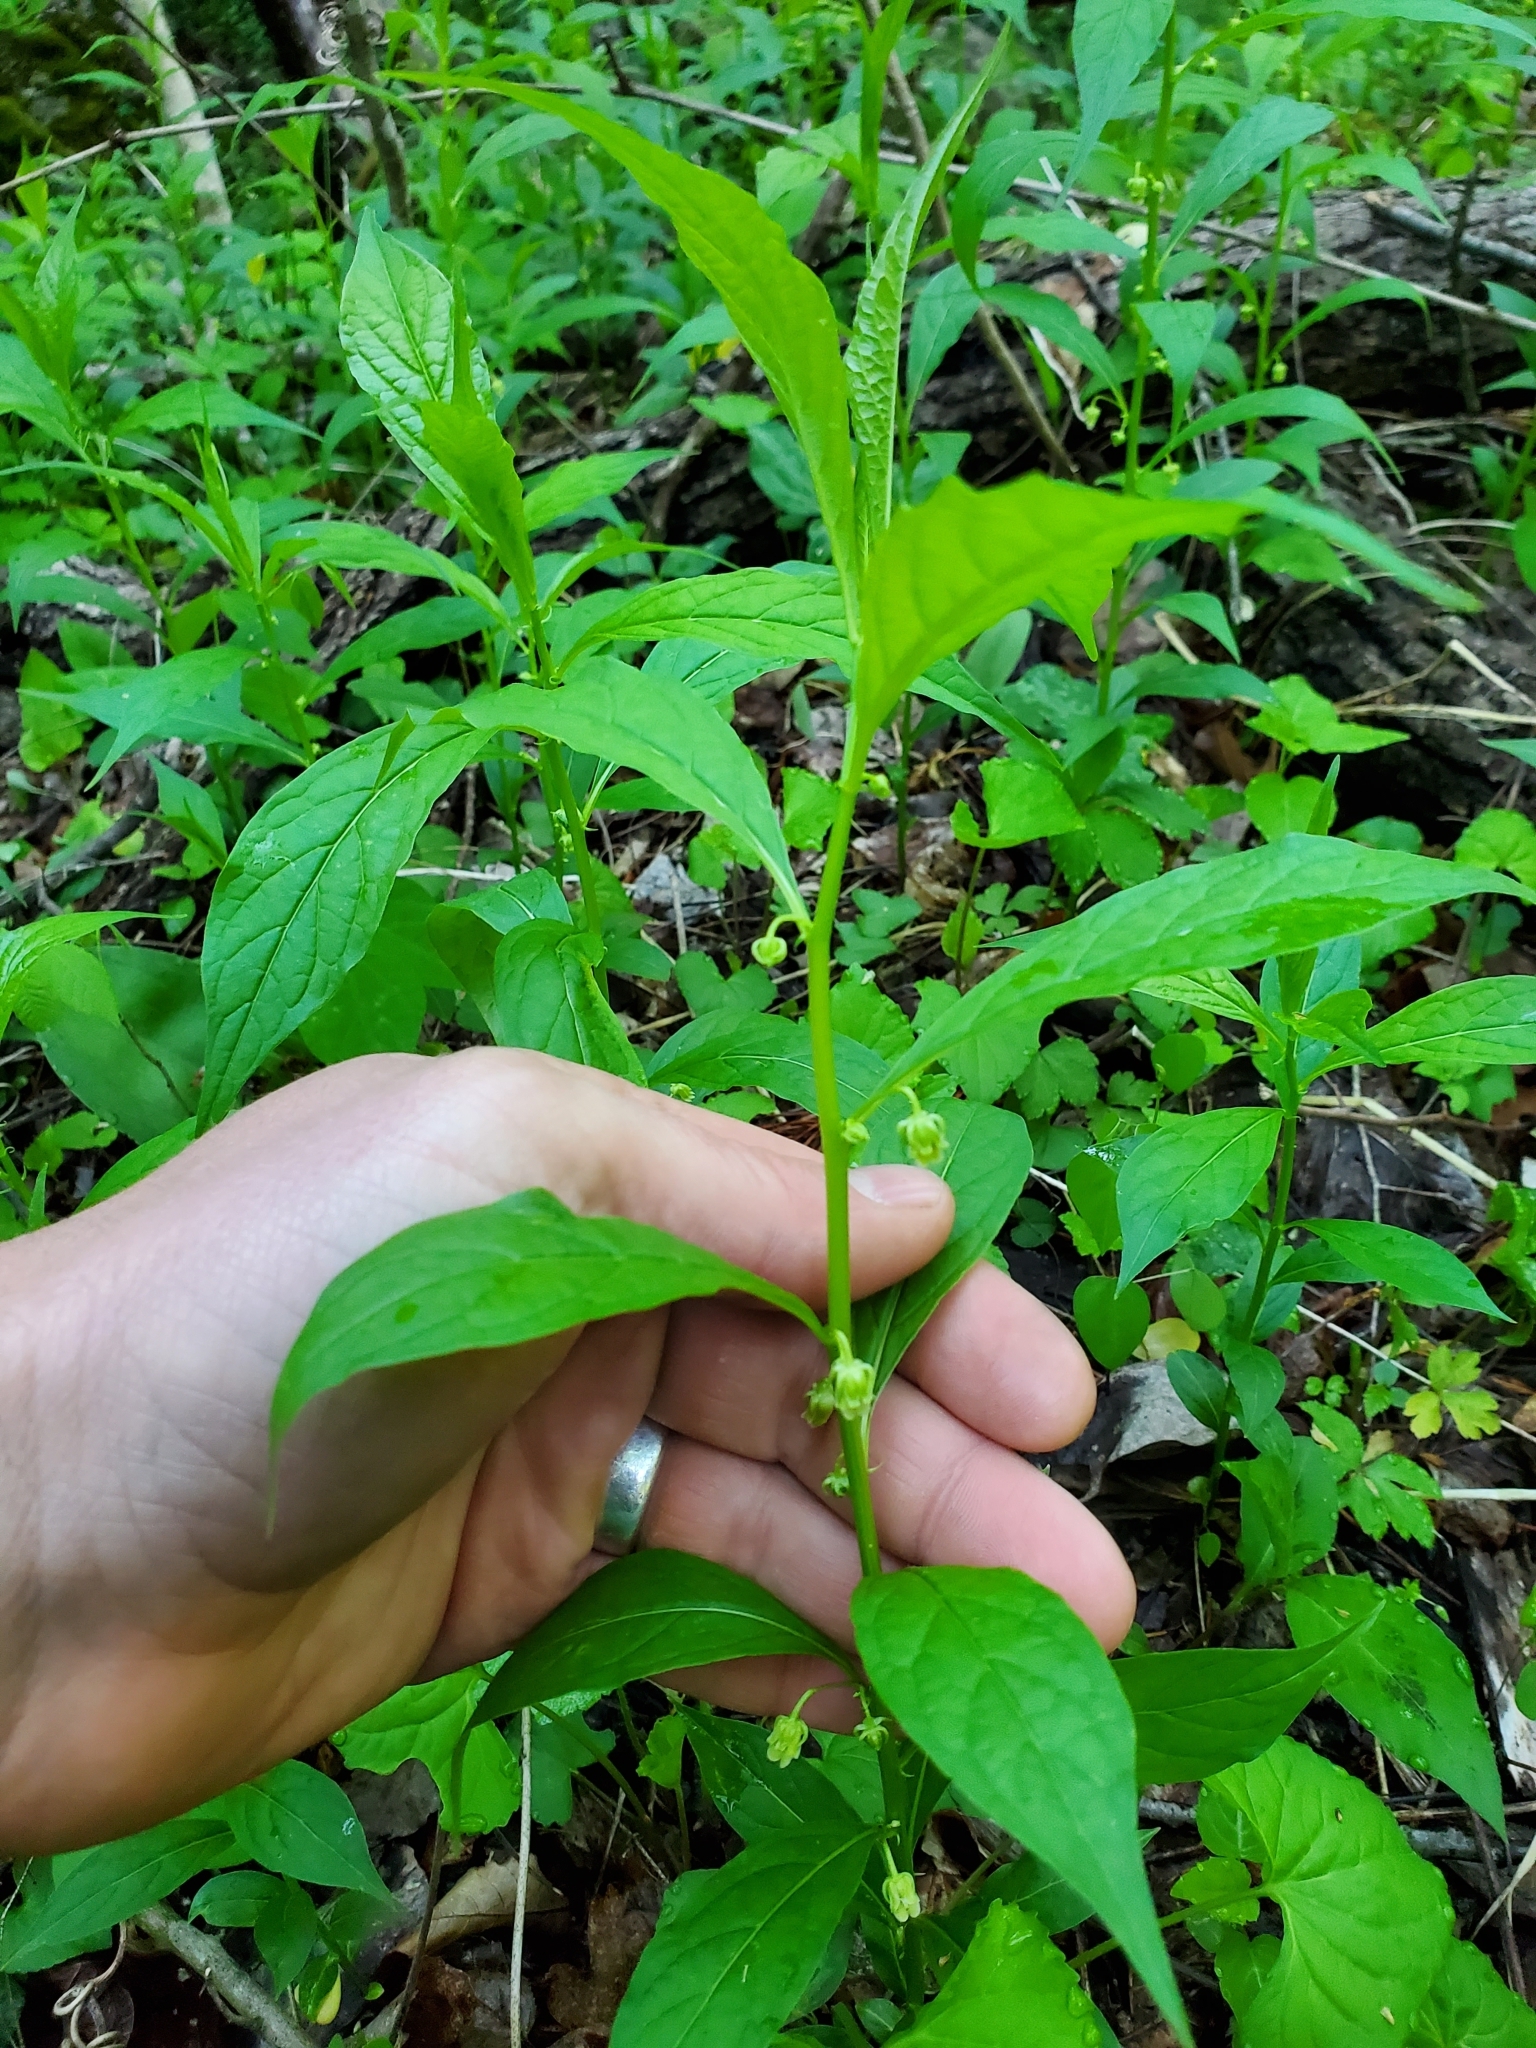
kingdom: Plantae
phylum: Tracheophyta
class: Magnoliopsida
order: Malpighiales
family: Violaceae
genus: Cubelium
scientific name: Cubelium concolor
